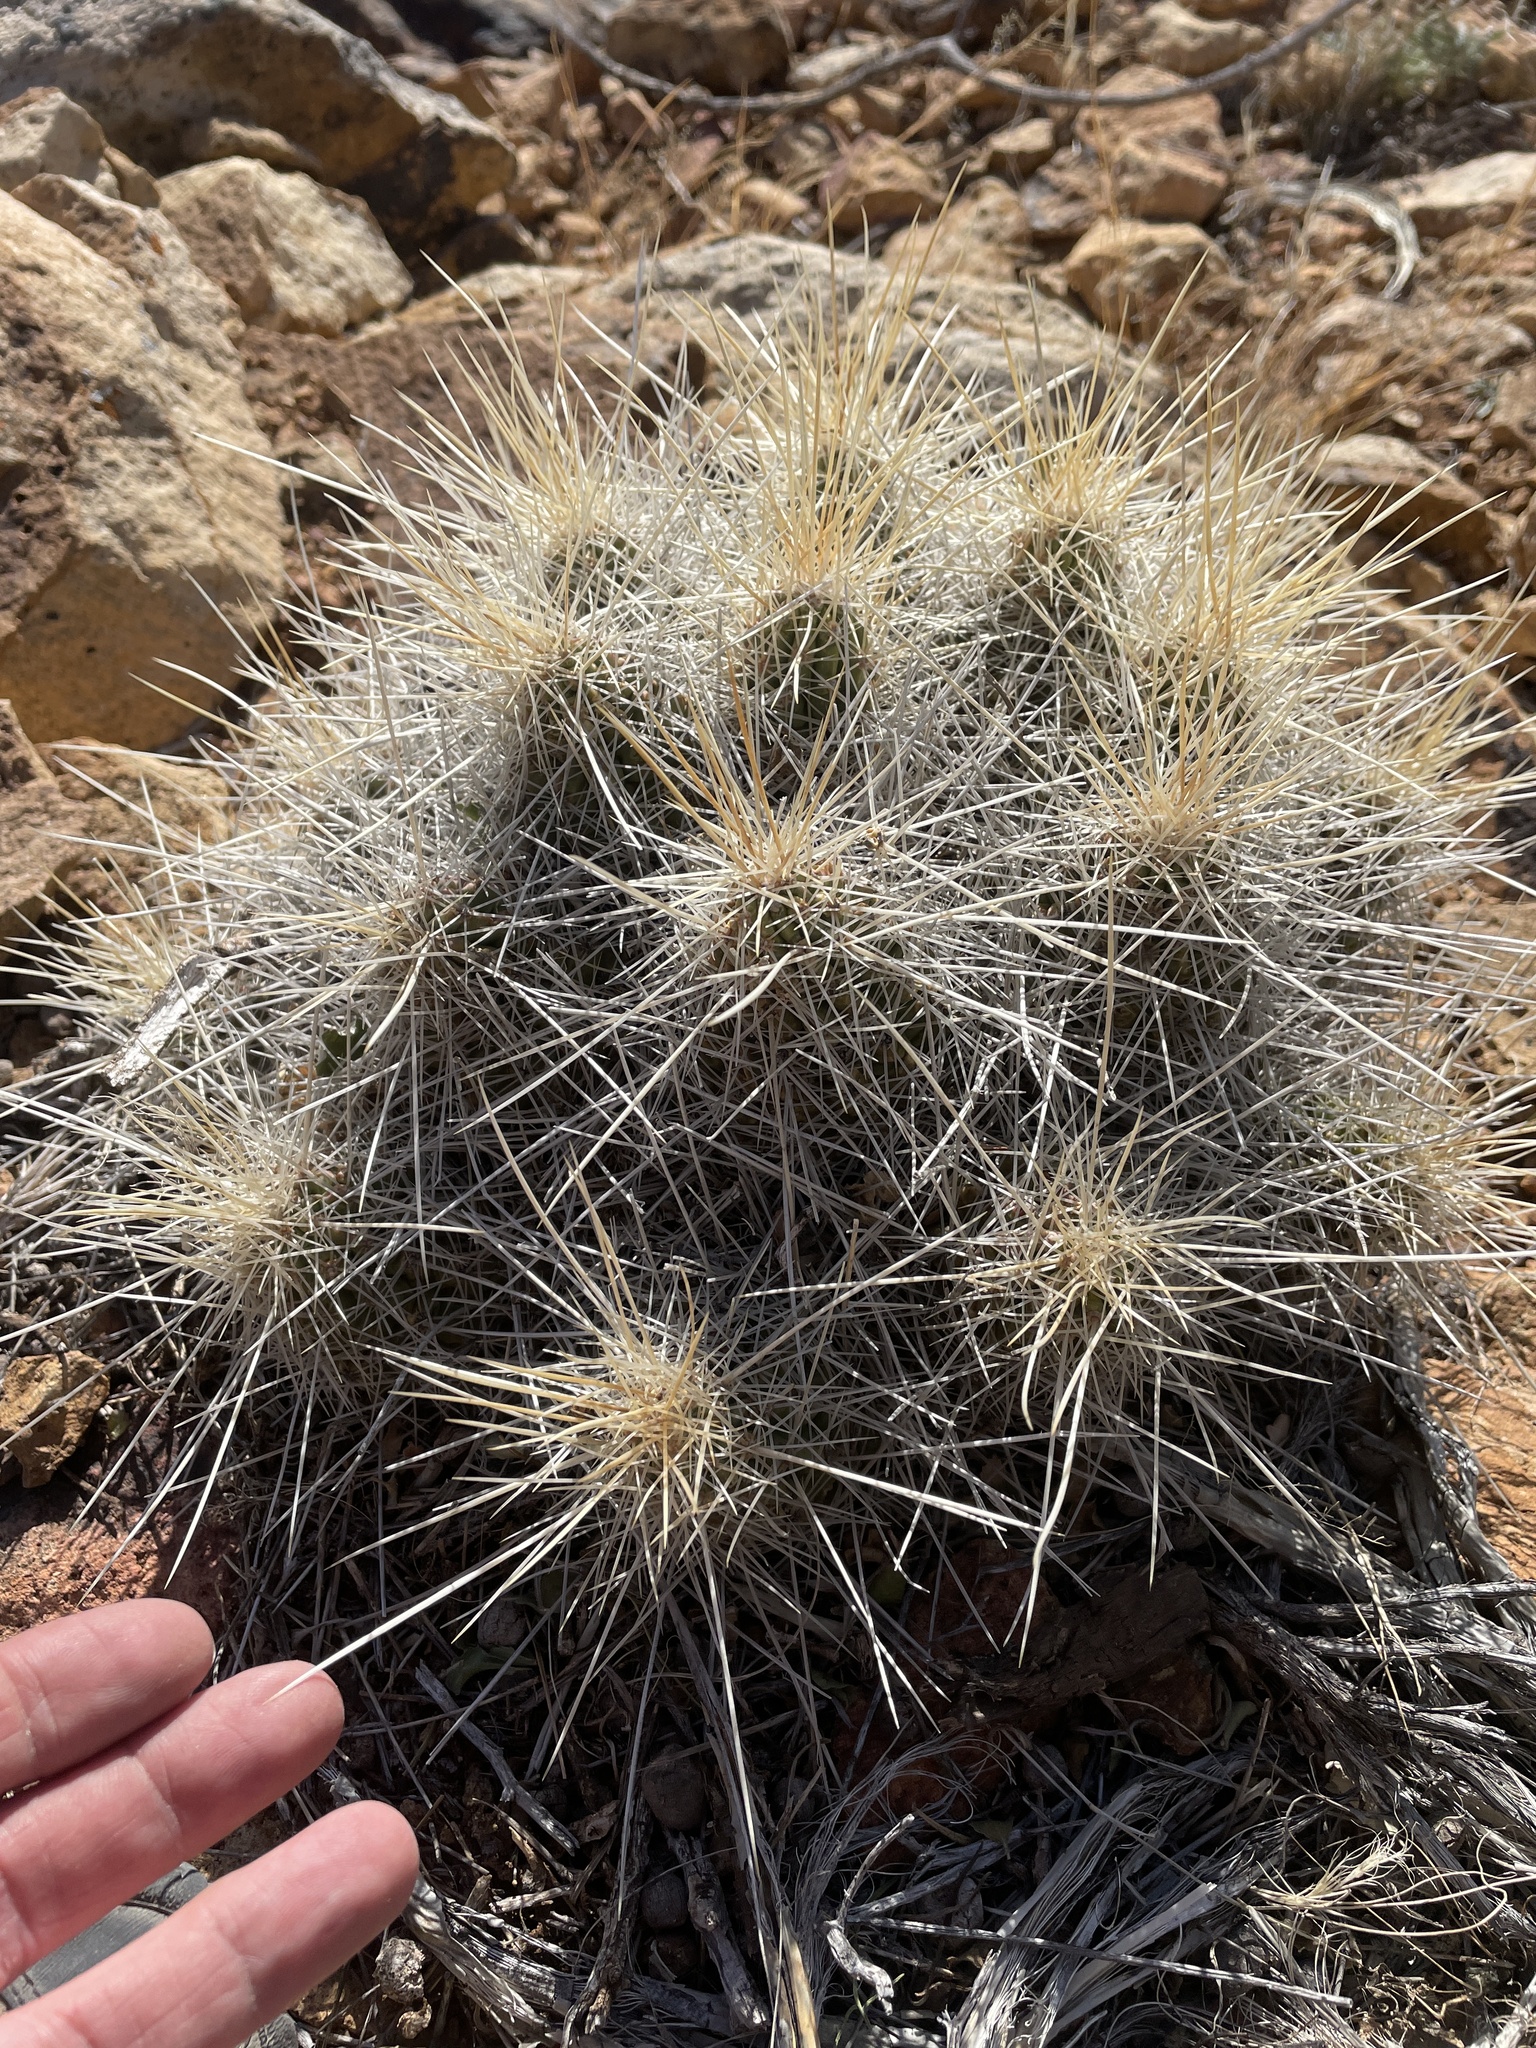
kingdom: Plantae
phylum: Tracheophyta
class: Magnoliopsida
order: Caryophyllales
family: Cactaceae
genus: Echinocereus
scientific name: Echinocereus stramineus
